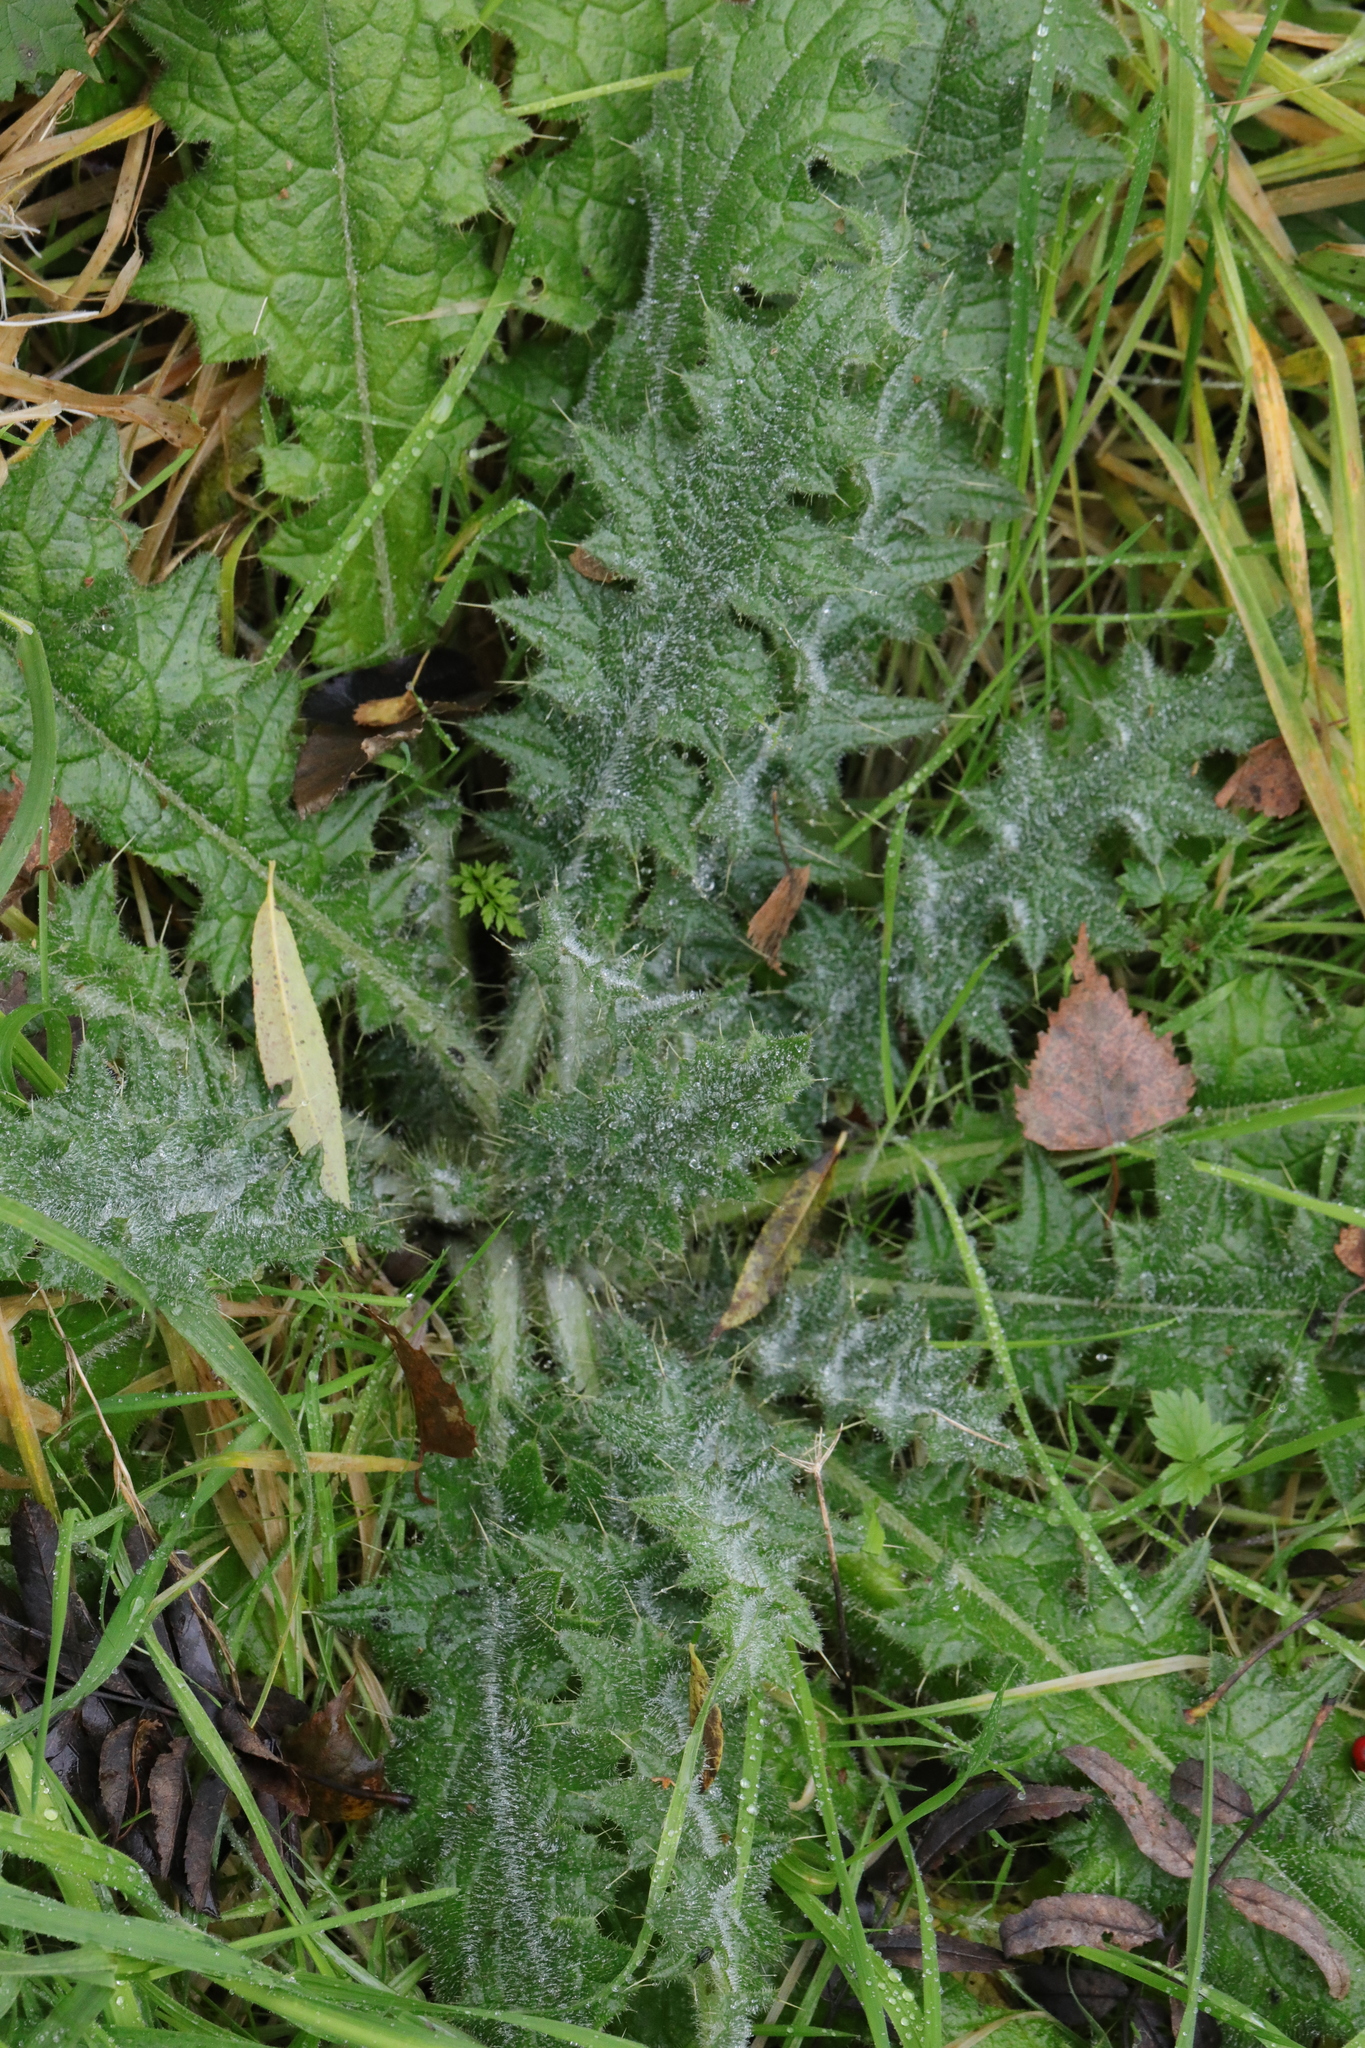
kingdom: Plantae
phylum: Tracheophyta
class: Magnoliopsida
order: Asterales
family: Asteraceae
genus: Cirsium
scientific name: Cirsium vulgare
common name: Bull thistle
